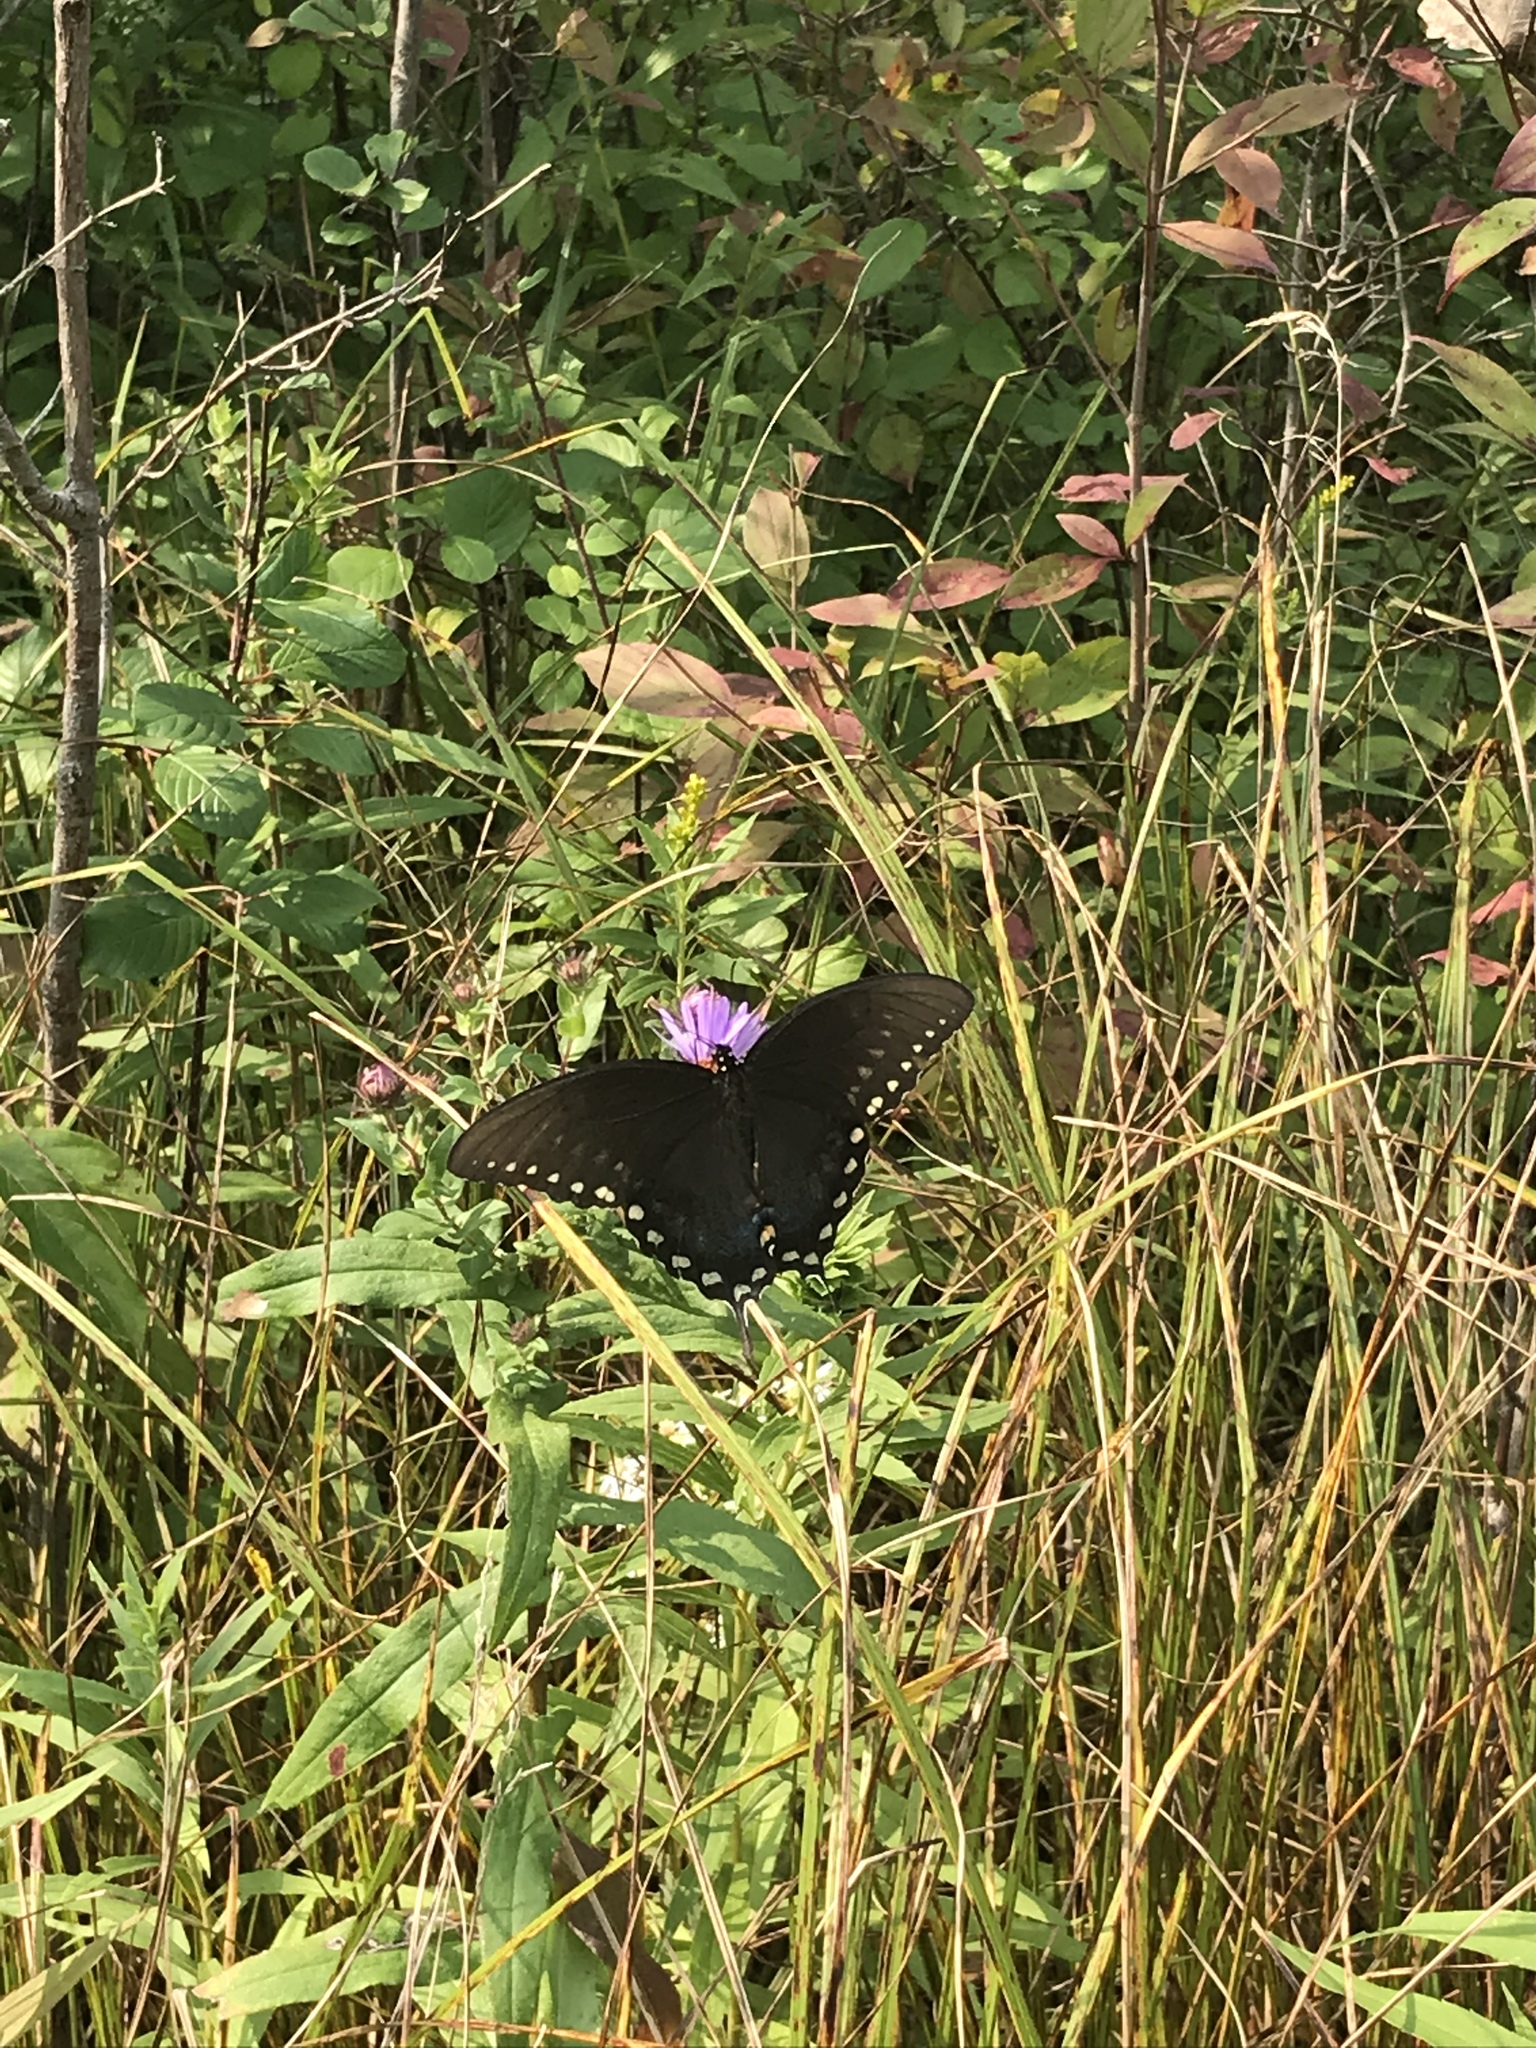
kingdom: Animalia
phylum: Arthropoda
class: Insecta
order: Lepidoptera
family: Papilionidae
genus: Papilio
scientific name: Papilio troilus
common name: Spicebush swallowtail
